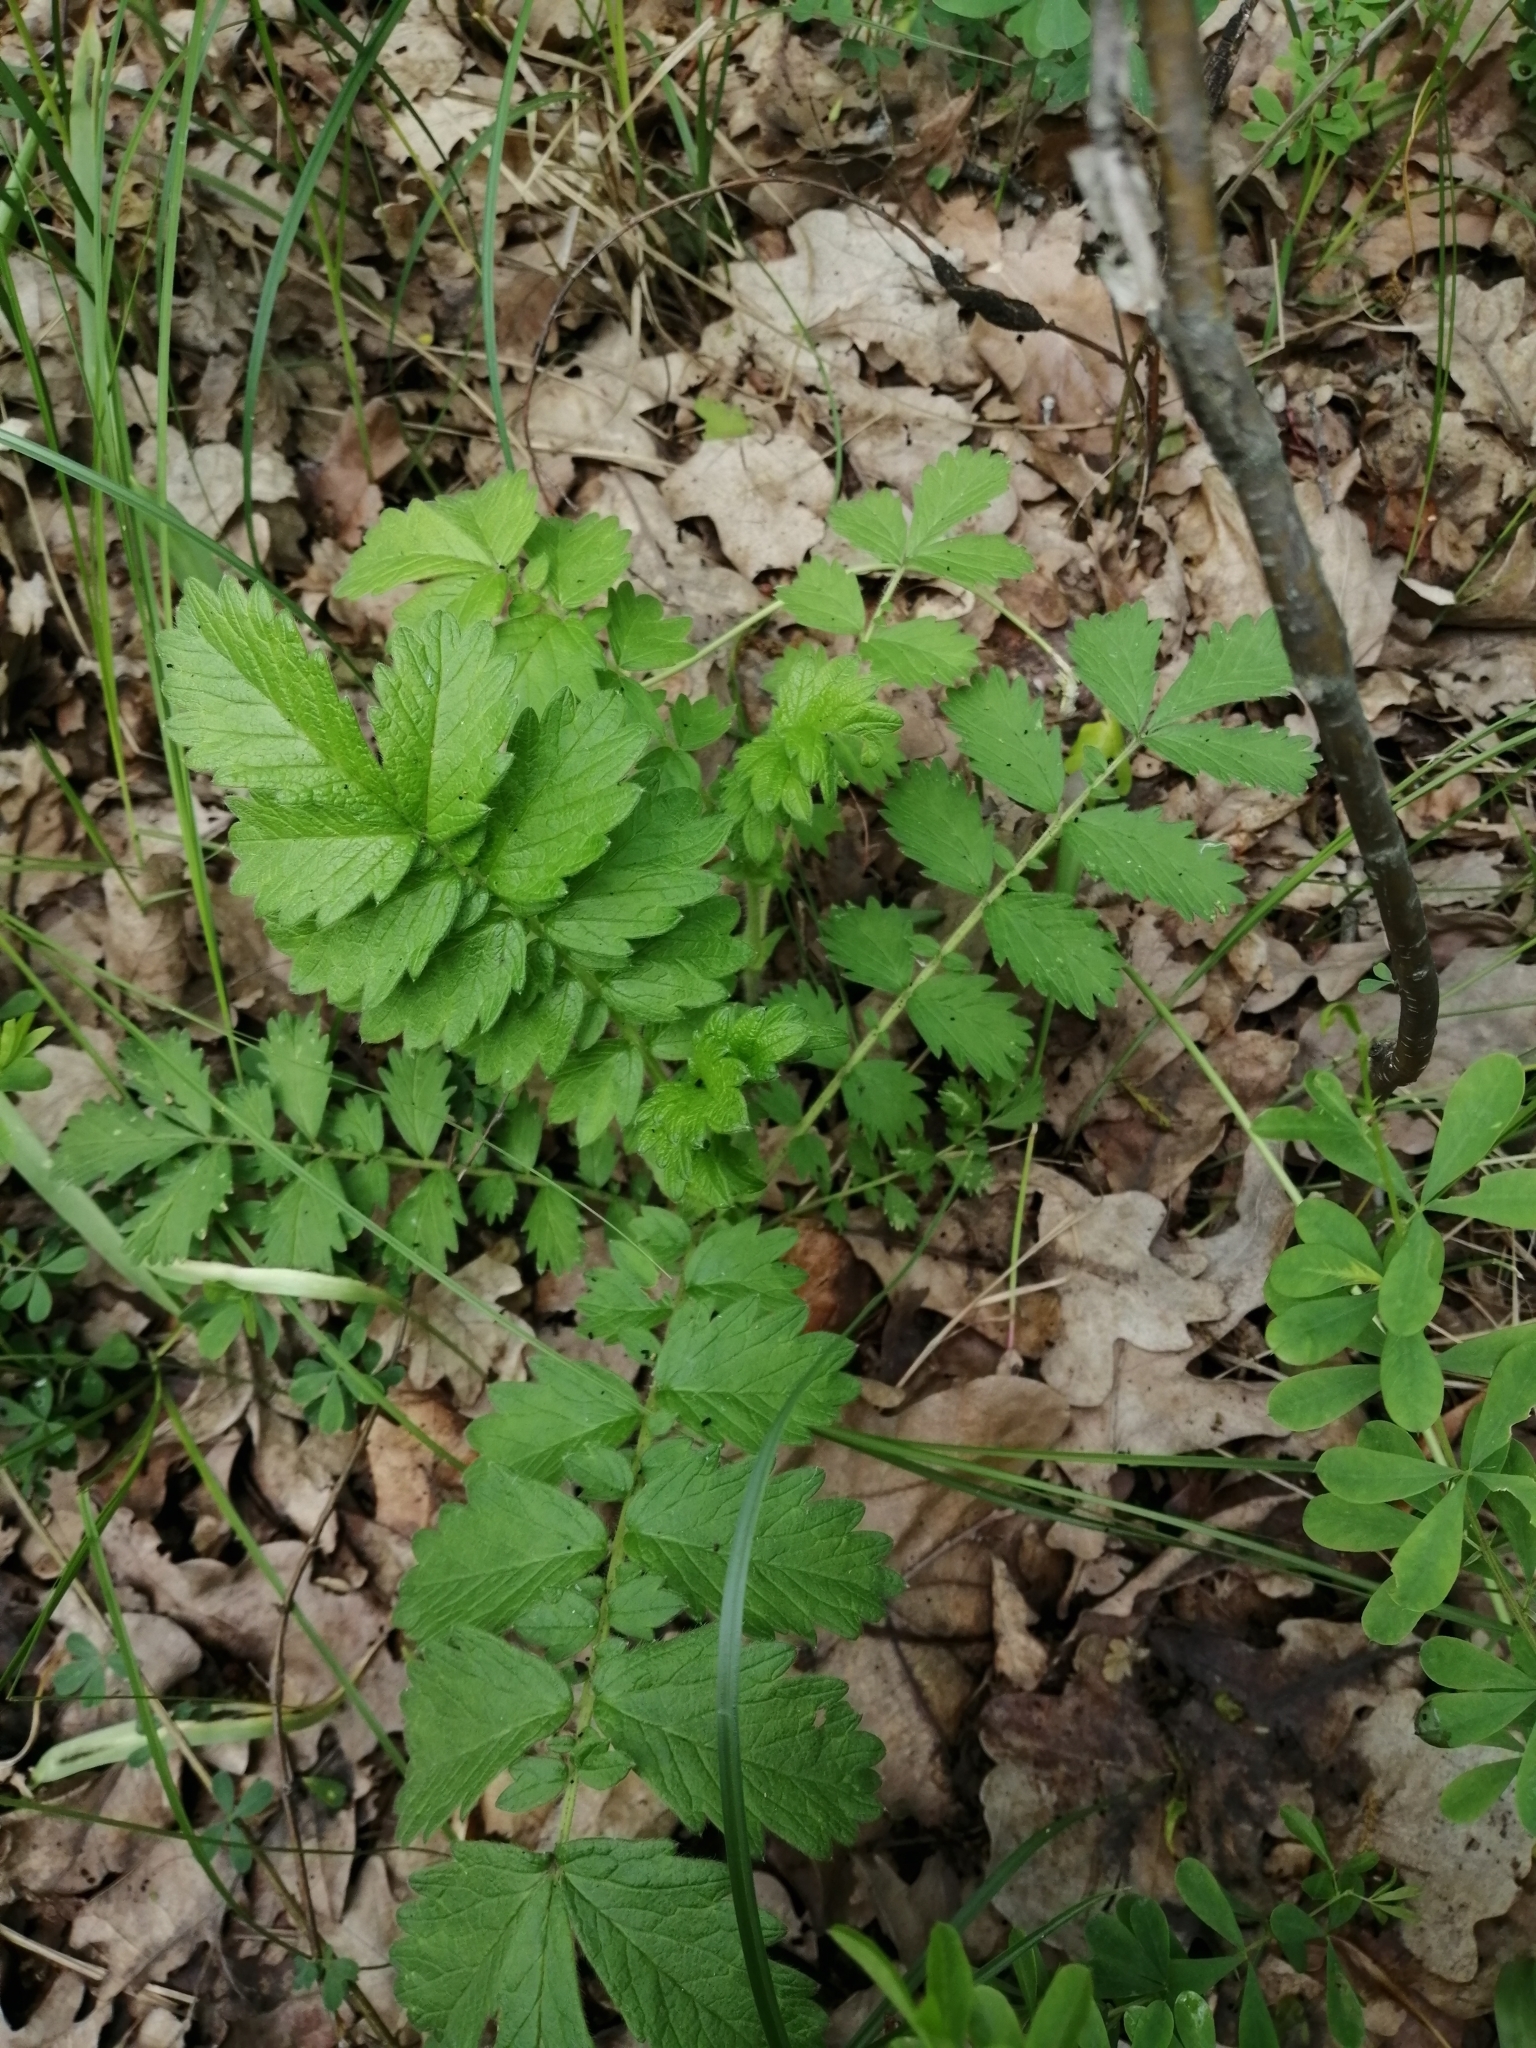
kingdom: Plantae
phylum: Tracheophyta
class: Magnoliopsida
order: Rosales
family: Rosaceae
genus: Agrimonia
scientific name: Agrimonia eupatoria
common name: Agrimony
